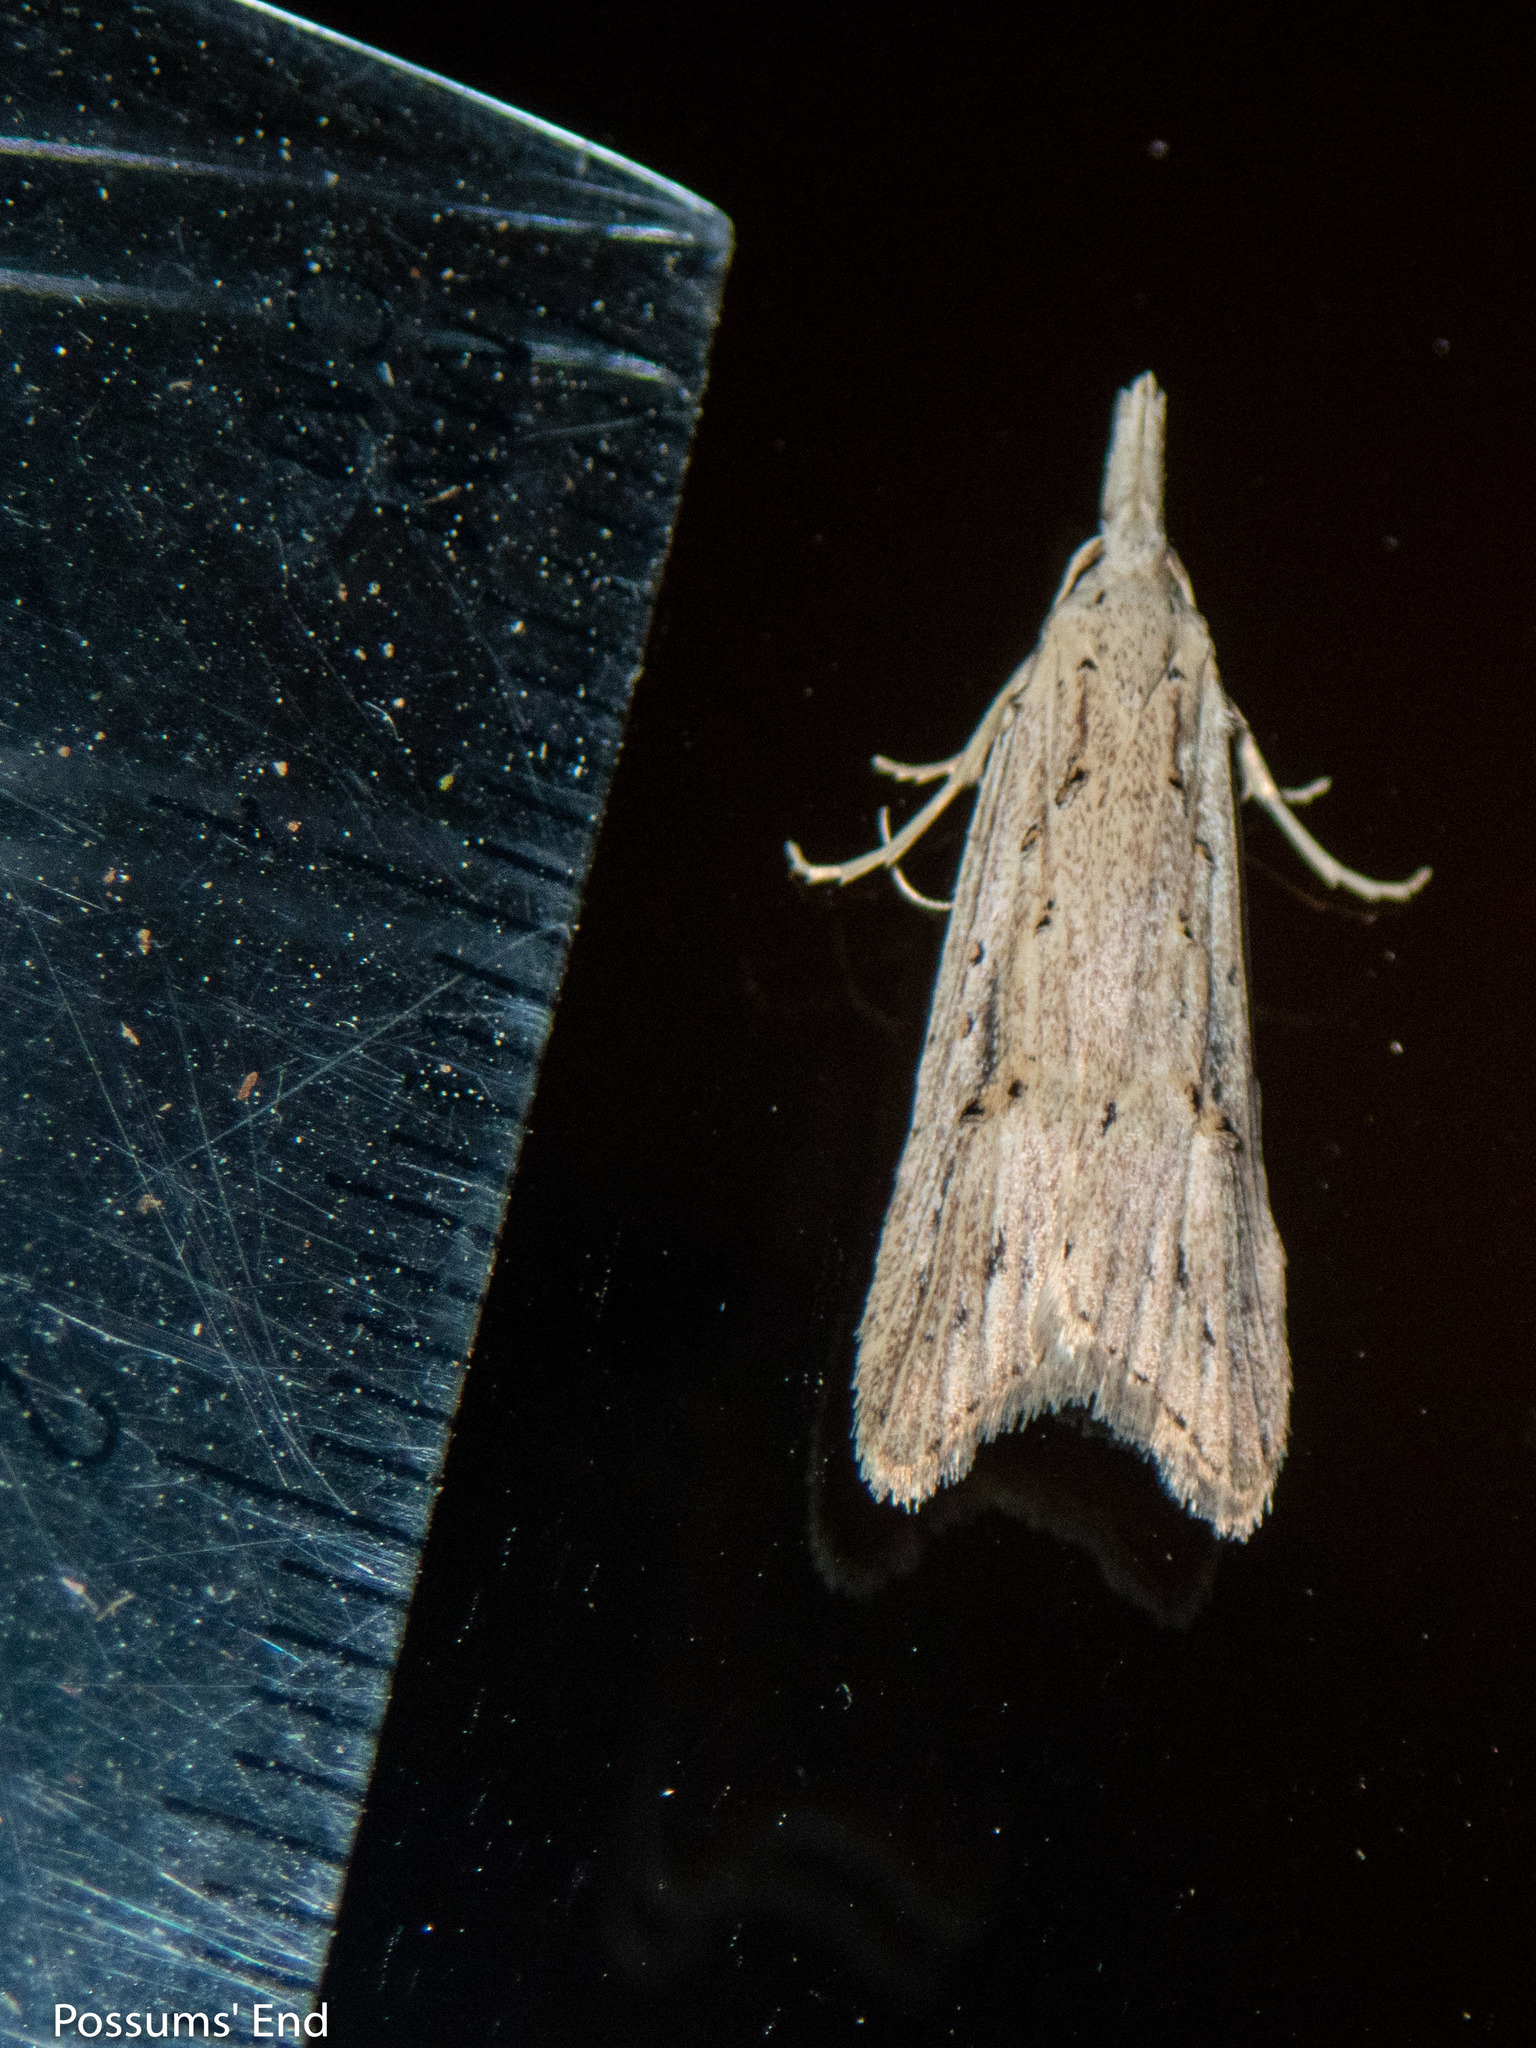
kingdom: Animalia
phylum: Arthropoda
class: Insecta
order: Lepidoptera
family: Carposinidae
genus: Carposina
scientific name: Carposina Heterocrossa exochana
